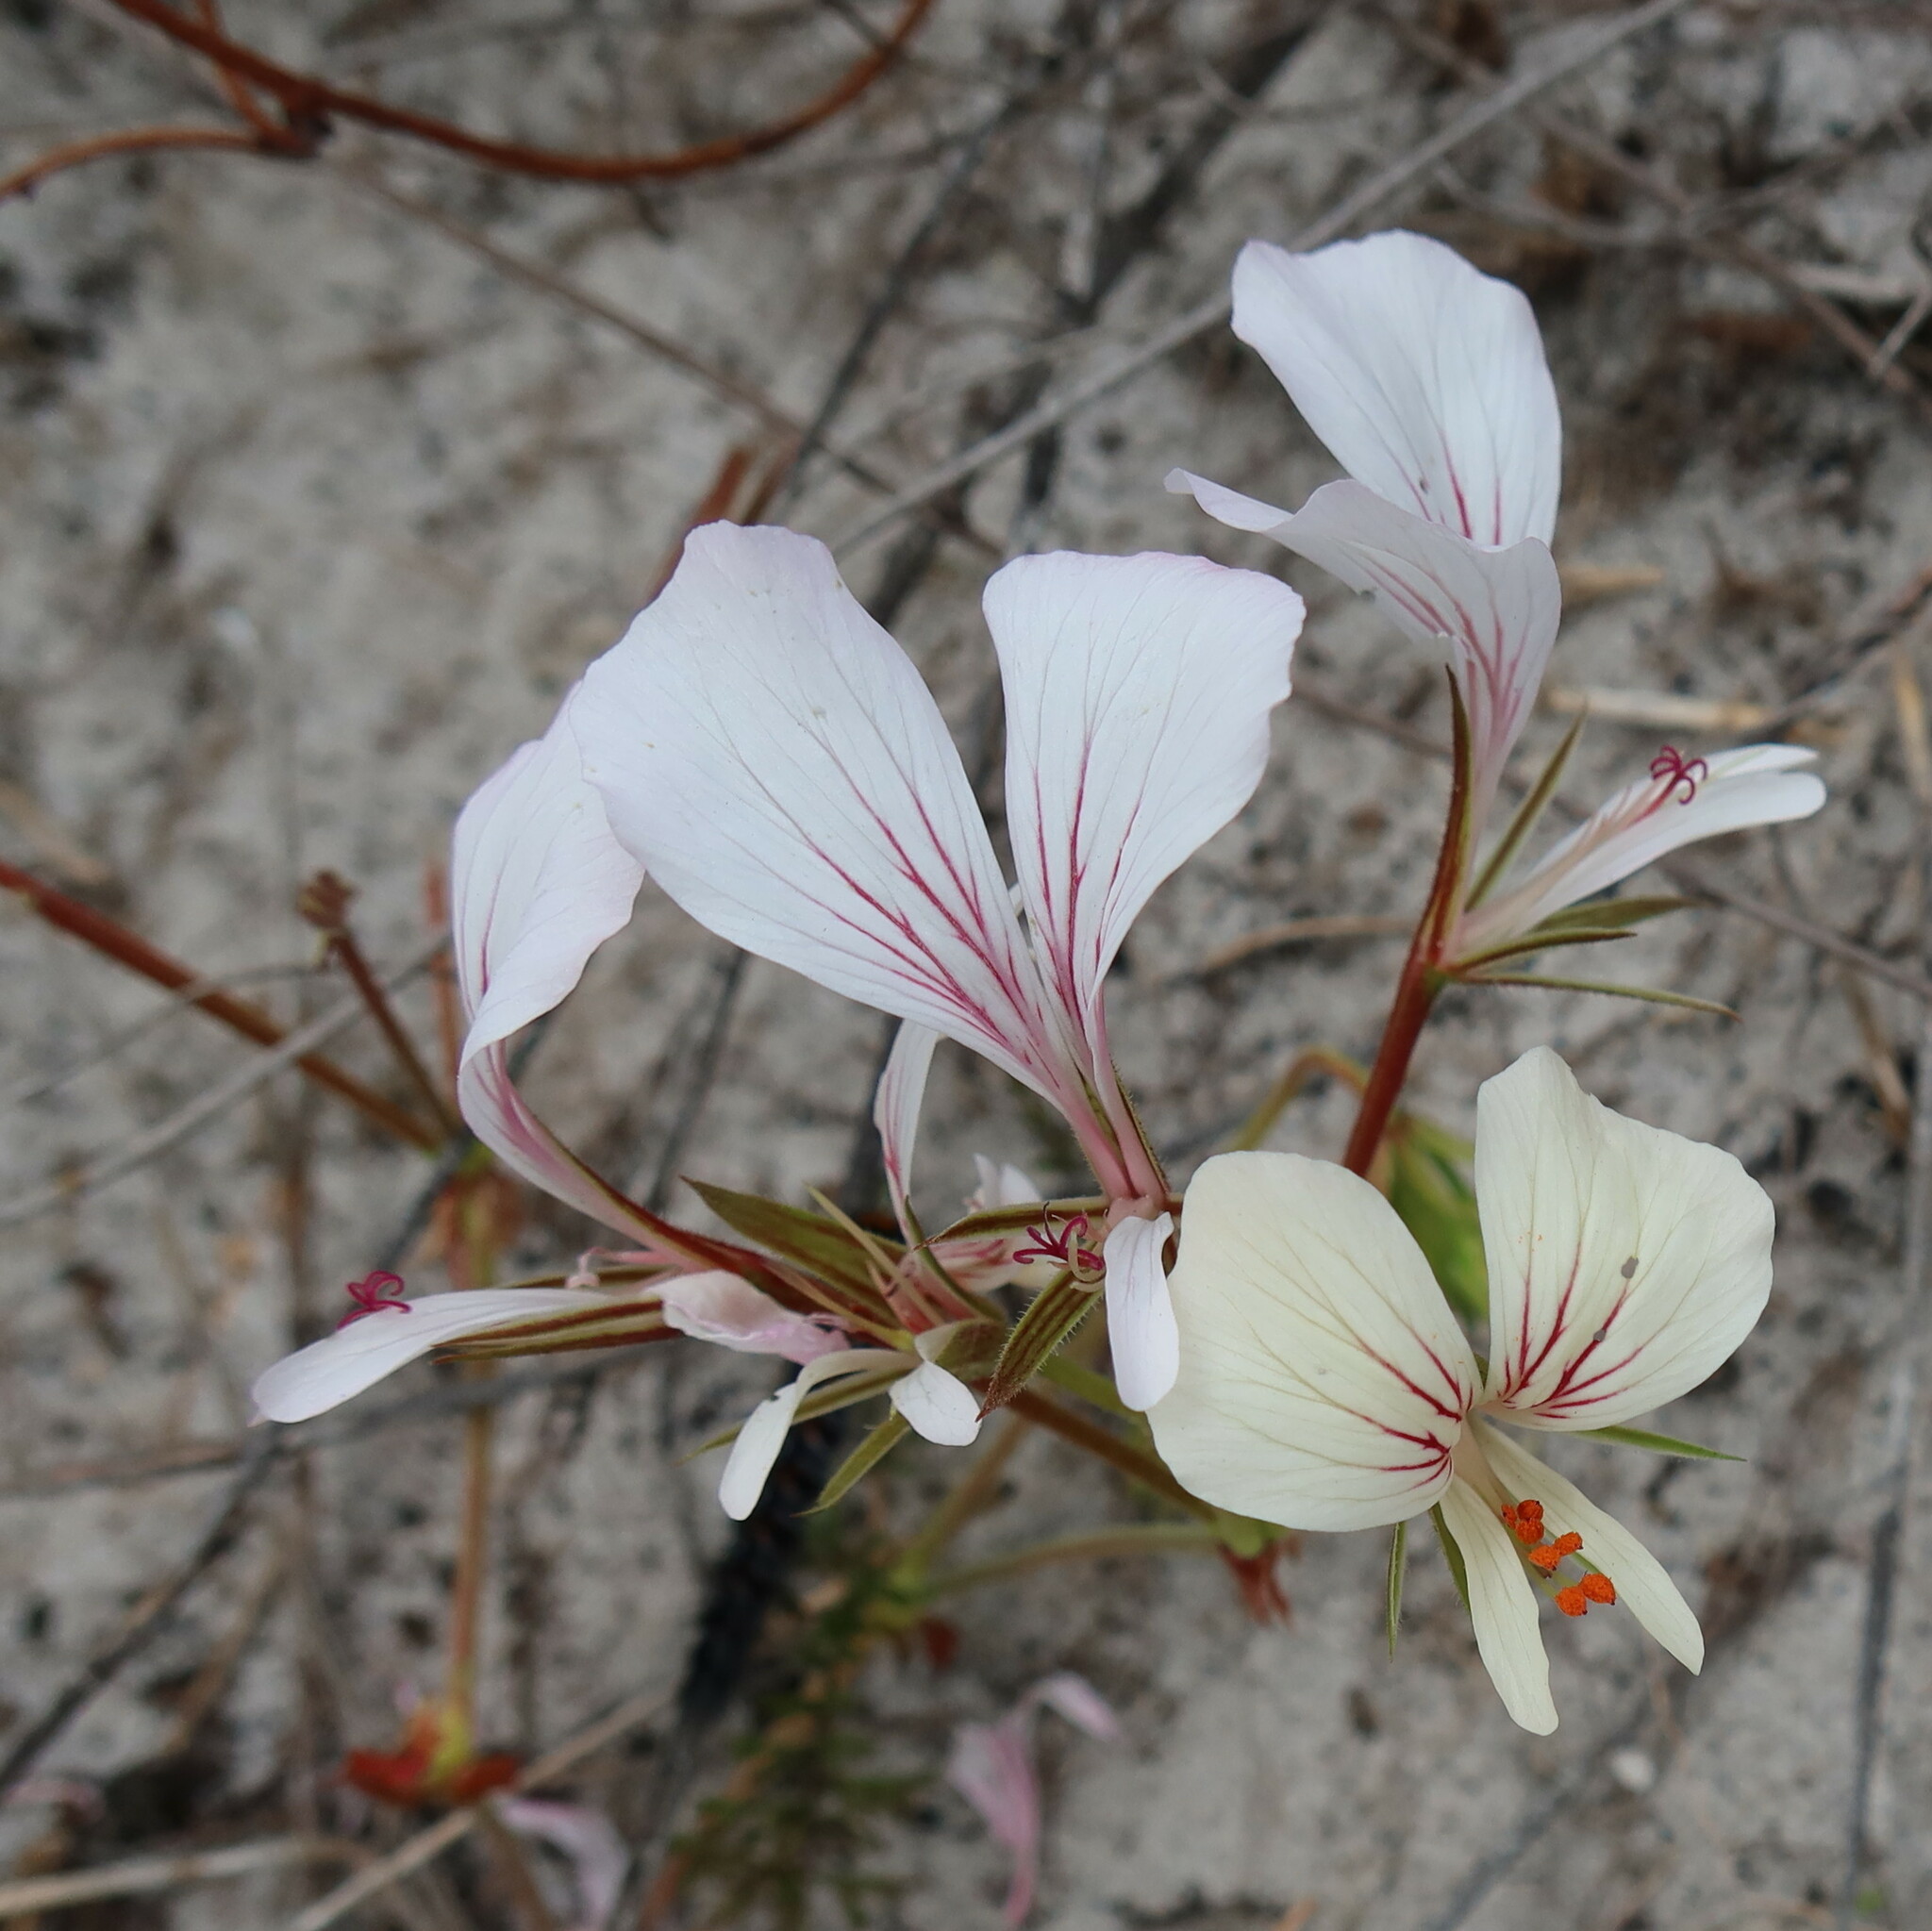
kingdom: Plantae
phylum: Tracheophyta
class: Magnoliopsida
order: Geraniales
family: Geraniaceae
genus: Pelargonium
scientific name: Pelargonium longicaule
